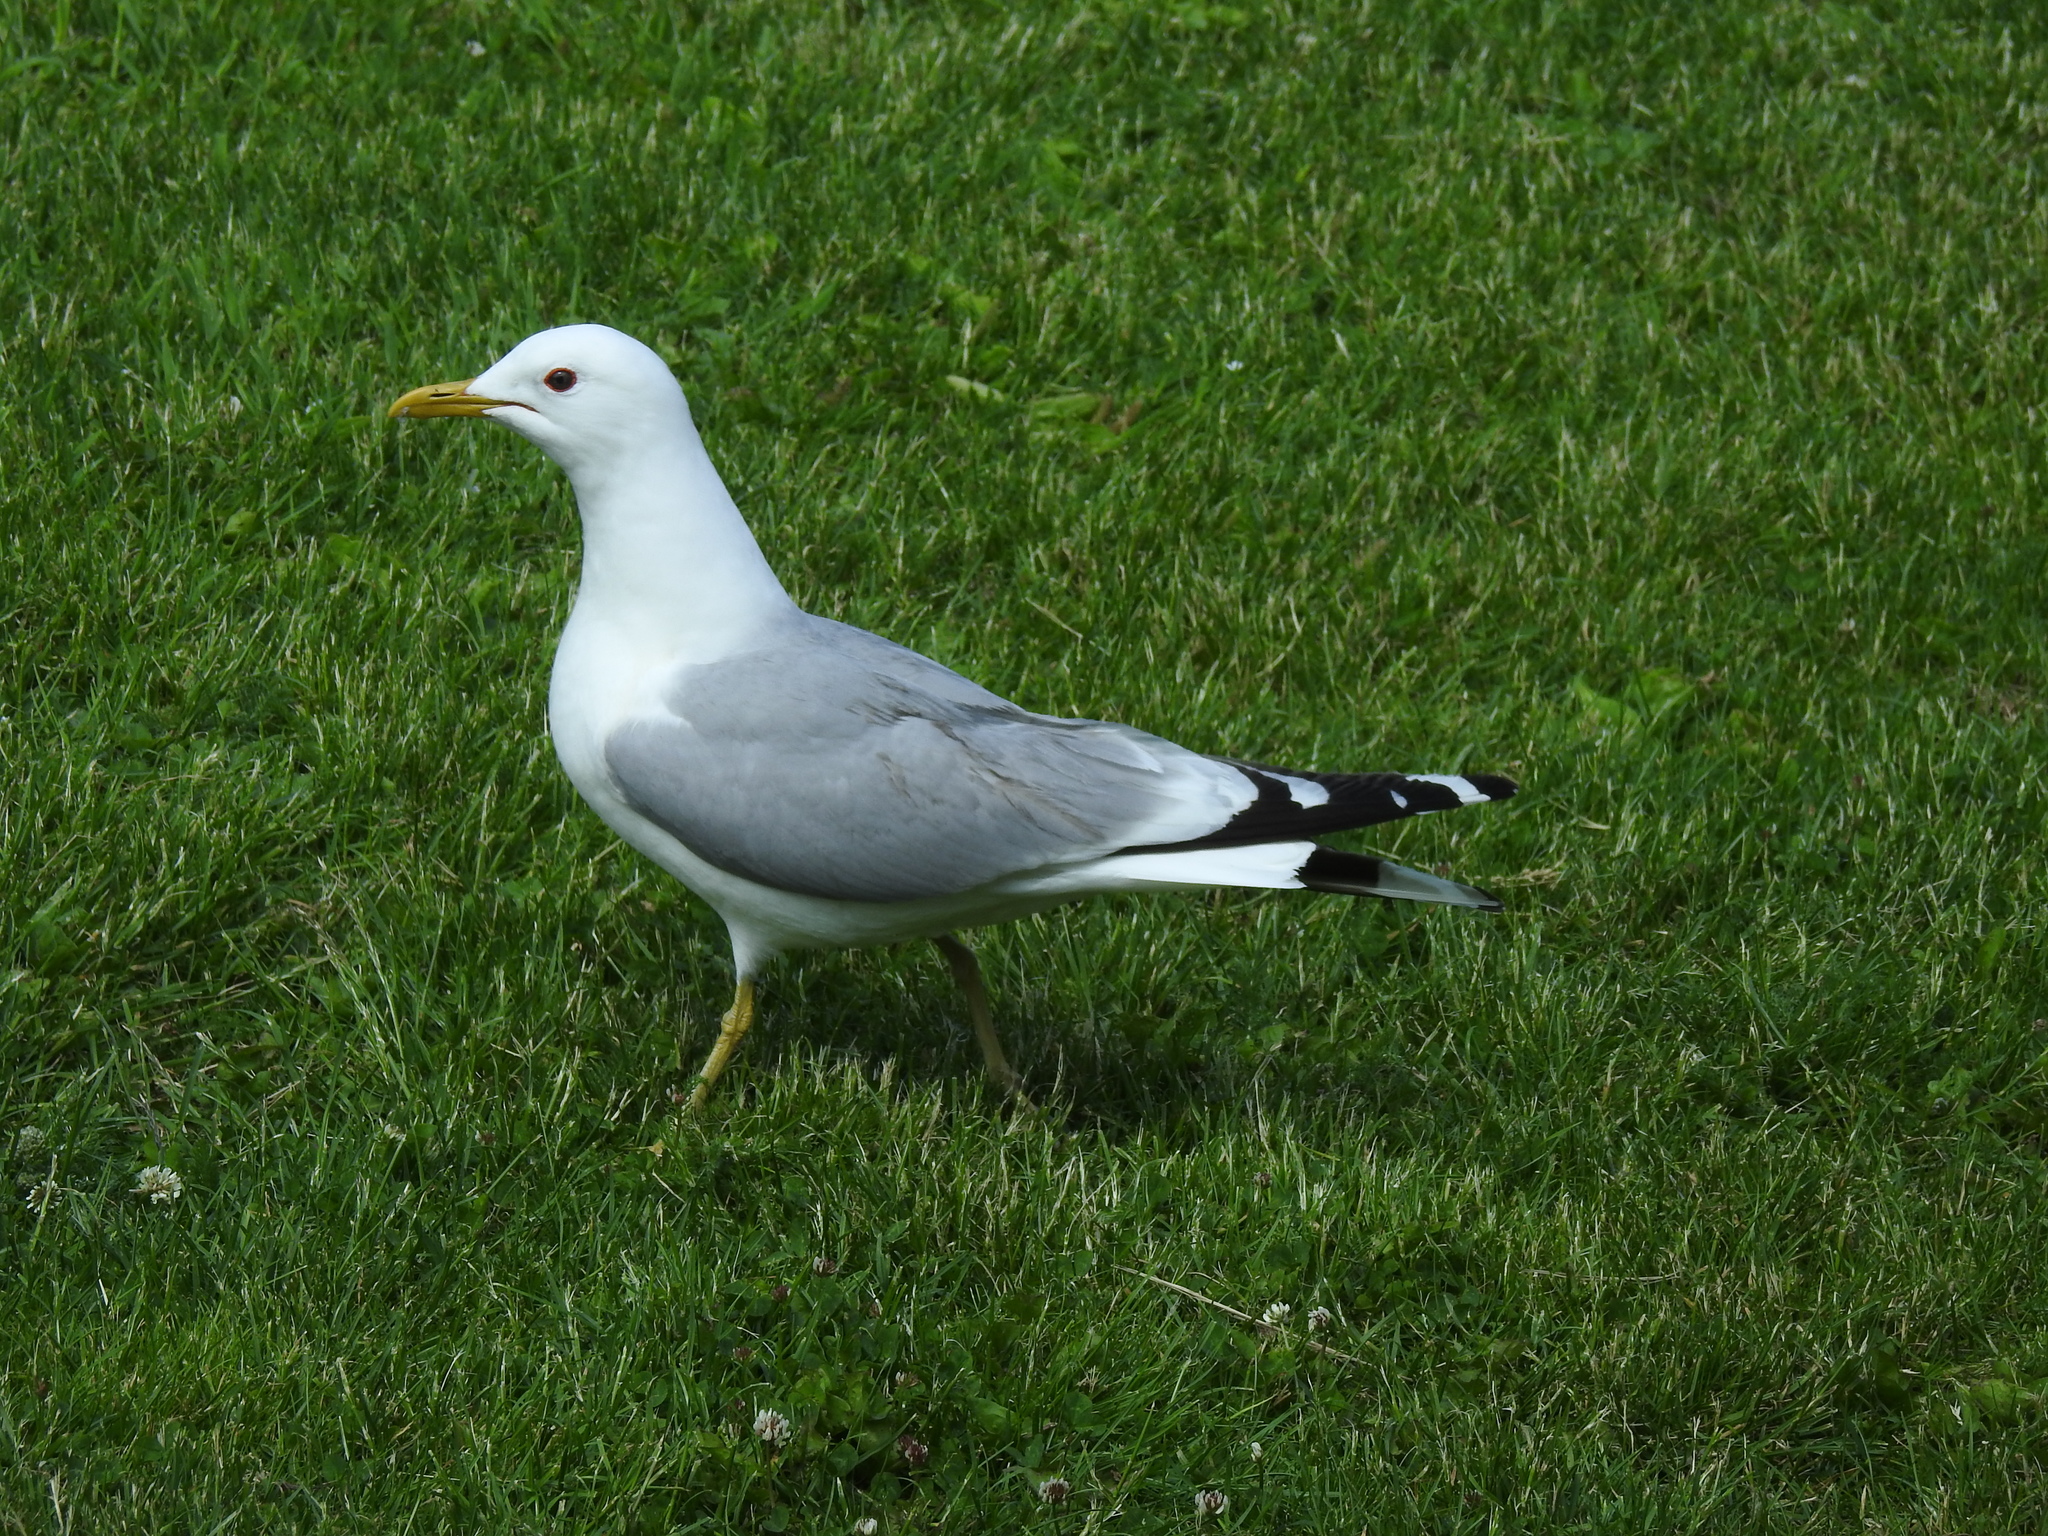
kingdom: Animalia
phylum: Chordata
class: Aves
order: Charadriiformes
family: Laridae
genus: Larus
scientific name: Larus canus
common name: Mew gull
